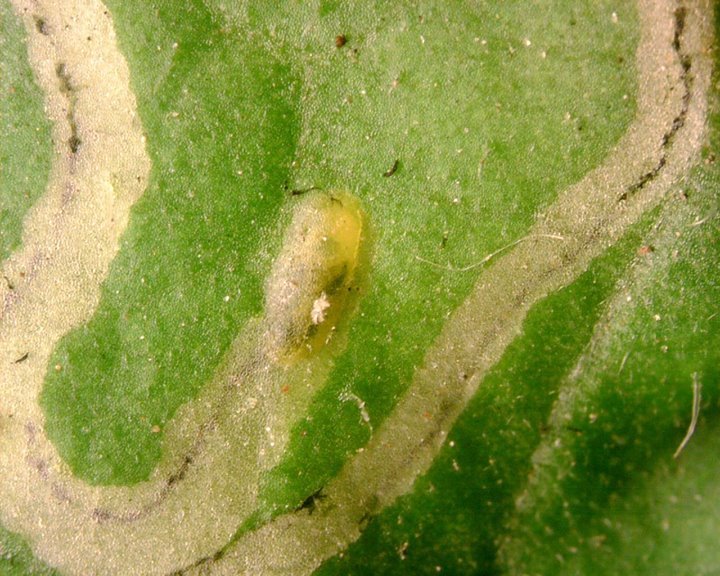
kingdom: Animalia
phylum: Arthropoda
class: Insecta
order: Diptera
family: Agromyzidae
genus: Liriomyza
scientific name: Liriomyza bryoniae
